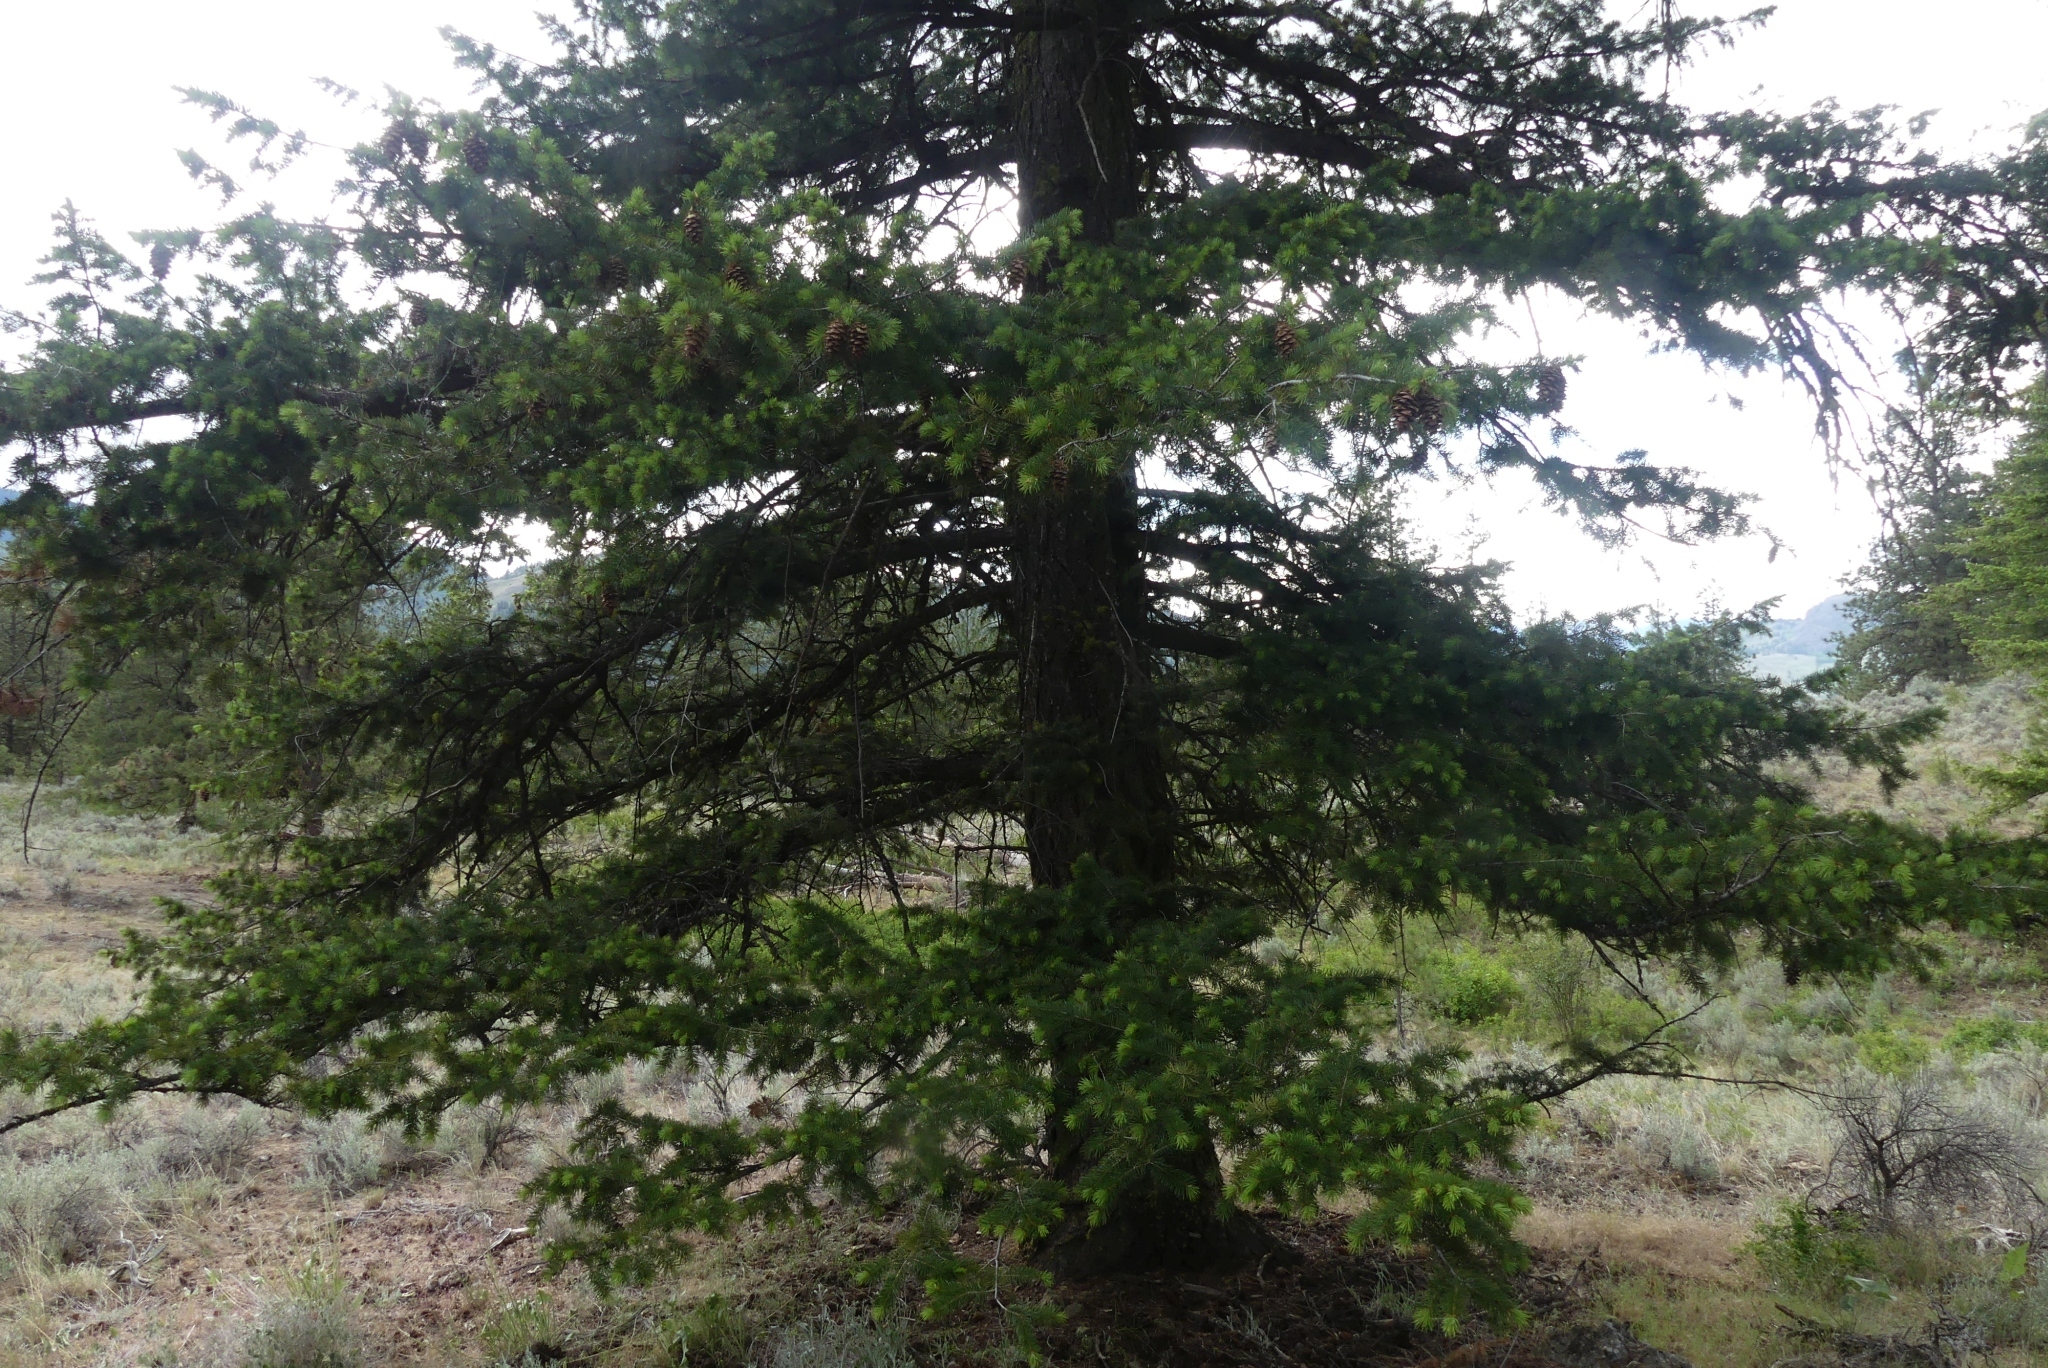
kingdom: Plantae
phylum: Tracheophyta
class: Pinopsida
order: Pinales
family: Pinaceae
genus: Pseudotsuga
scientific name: Pseudotsuga menziesii
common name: Douglas fir
